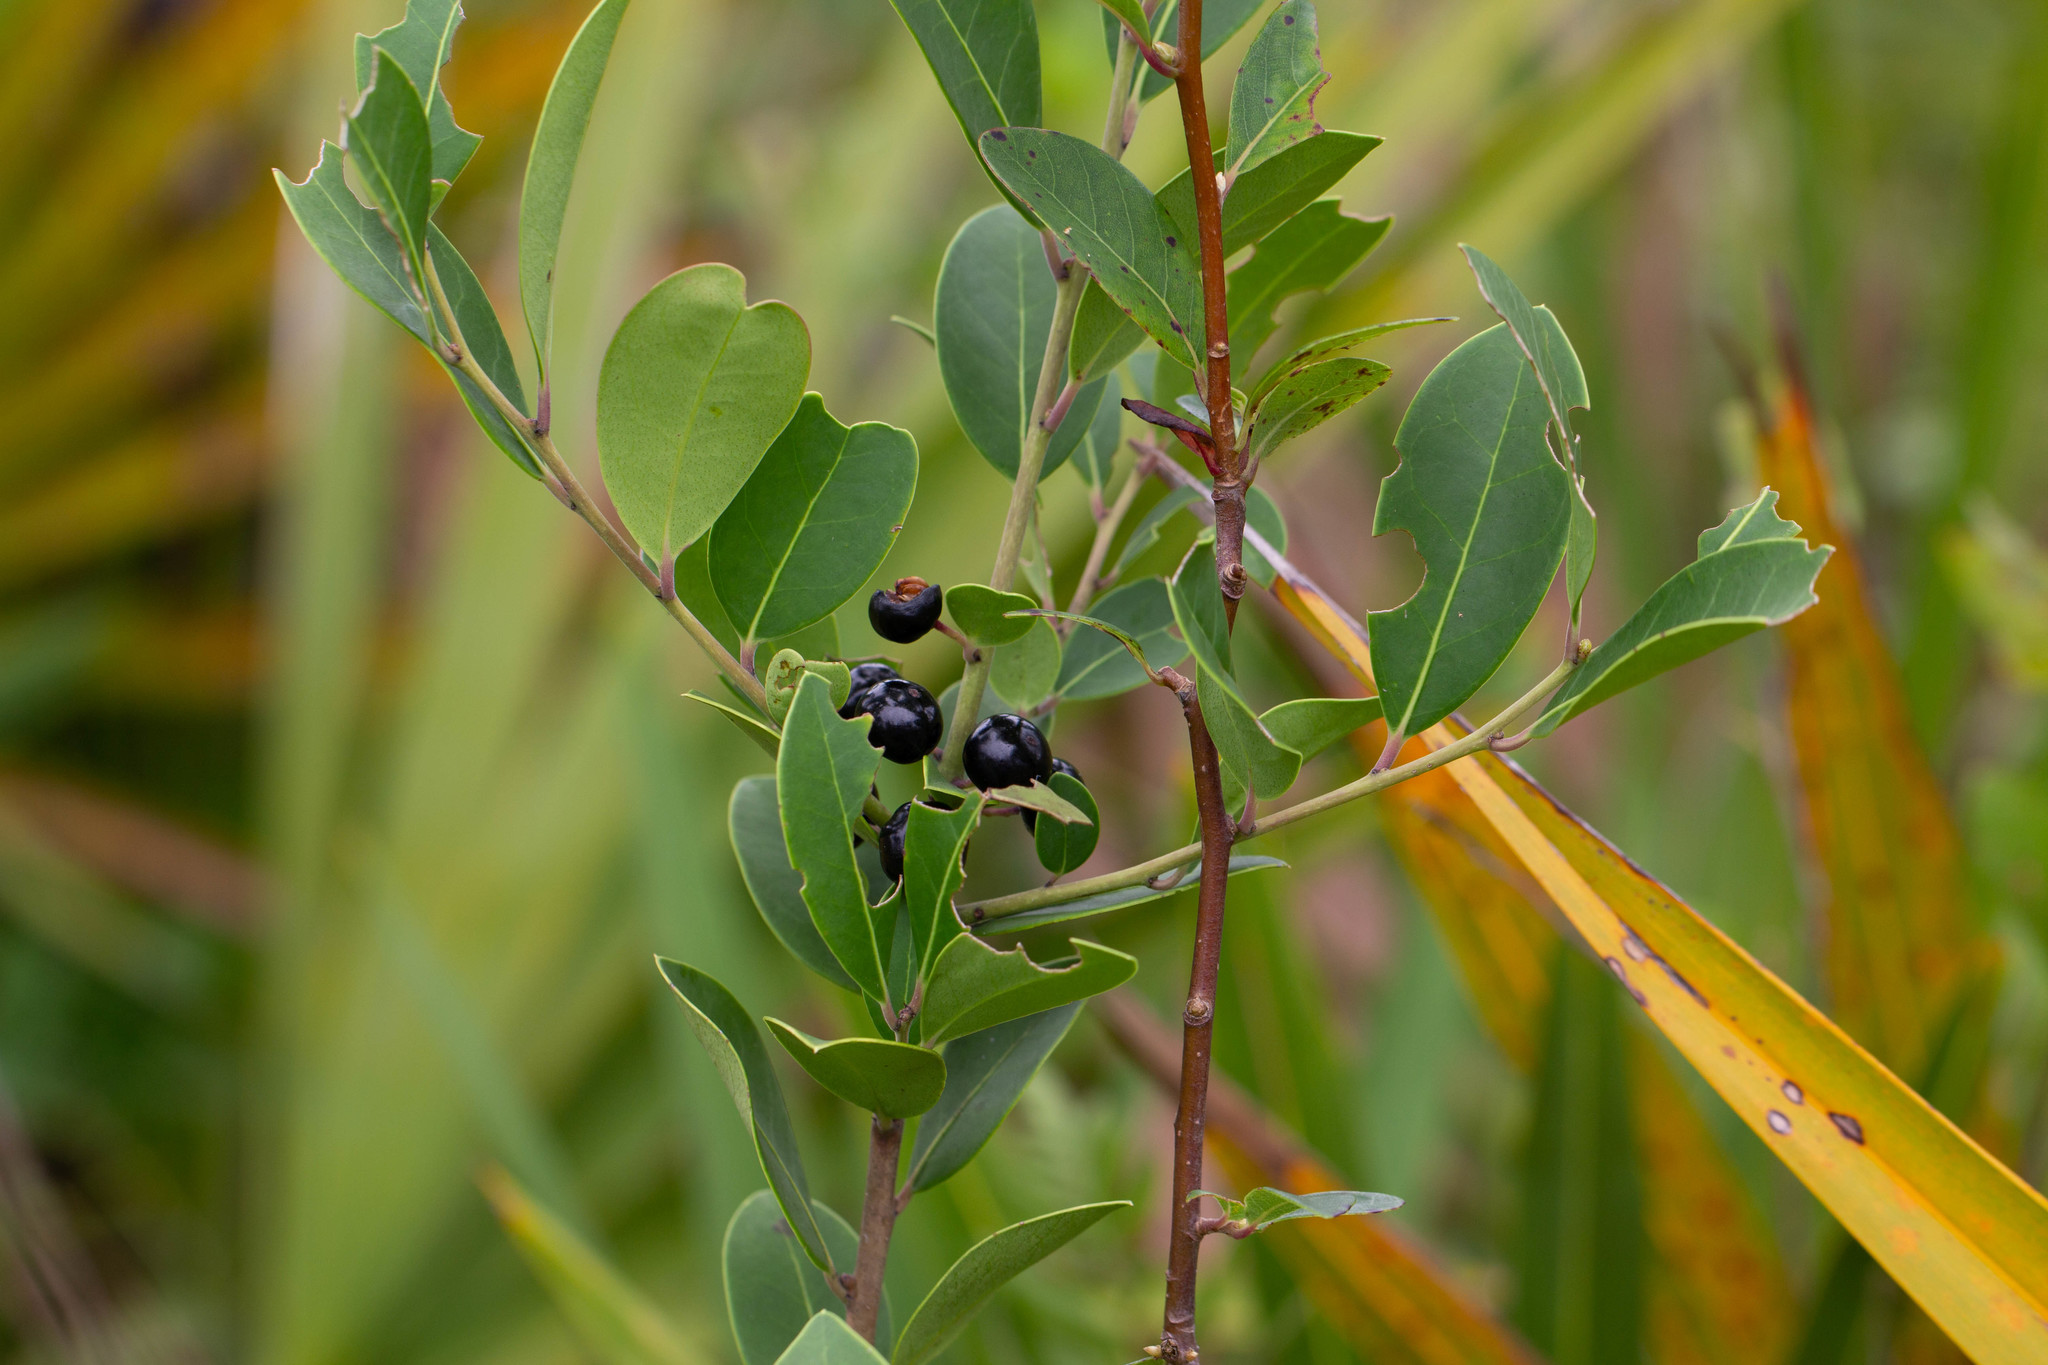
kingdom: Plantae
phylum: Tracheophyta
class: Magnoliopsida
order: Aquifoliales
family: Aquifoliaceae
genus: Ilex
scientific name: Ilex glabra
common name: Bitter gallberry
